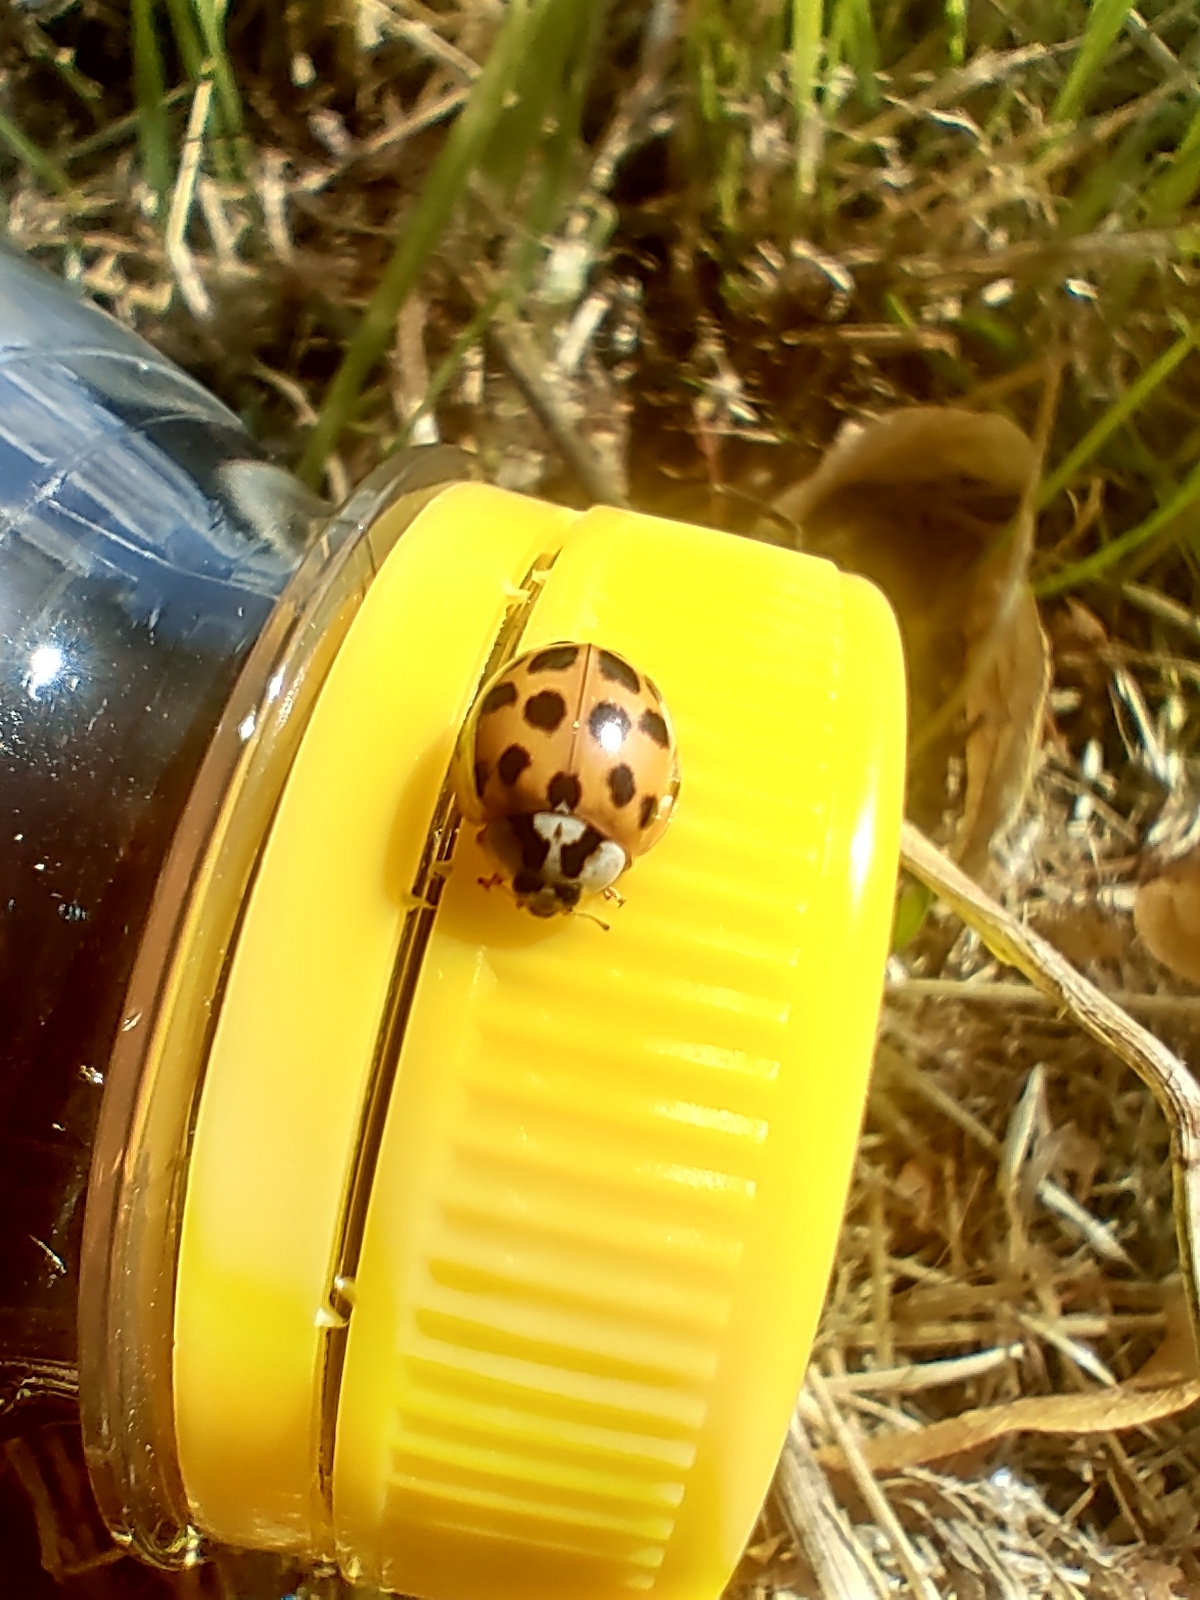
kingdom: Animalia
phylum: Arthropoda
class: Insecta
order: Coleoptera
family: Coccinellidae
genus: Harmonia
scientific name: Harmonia axyridis
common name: Harlequin ladybird
